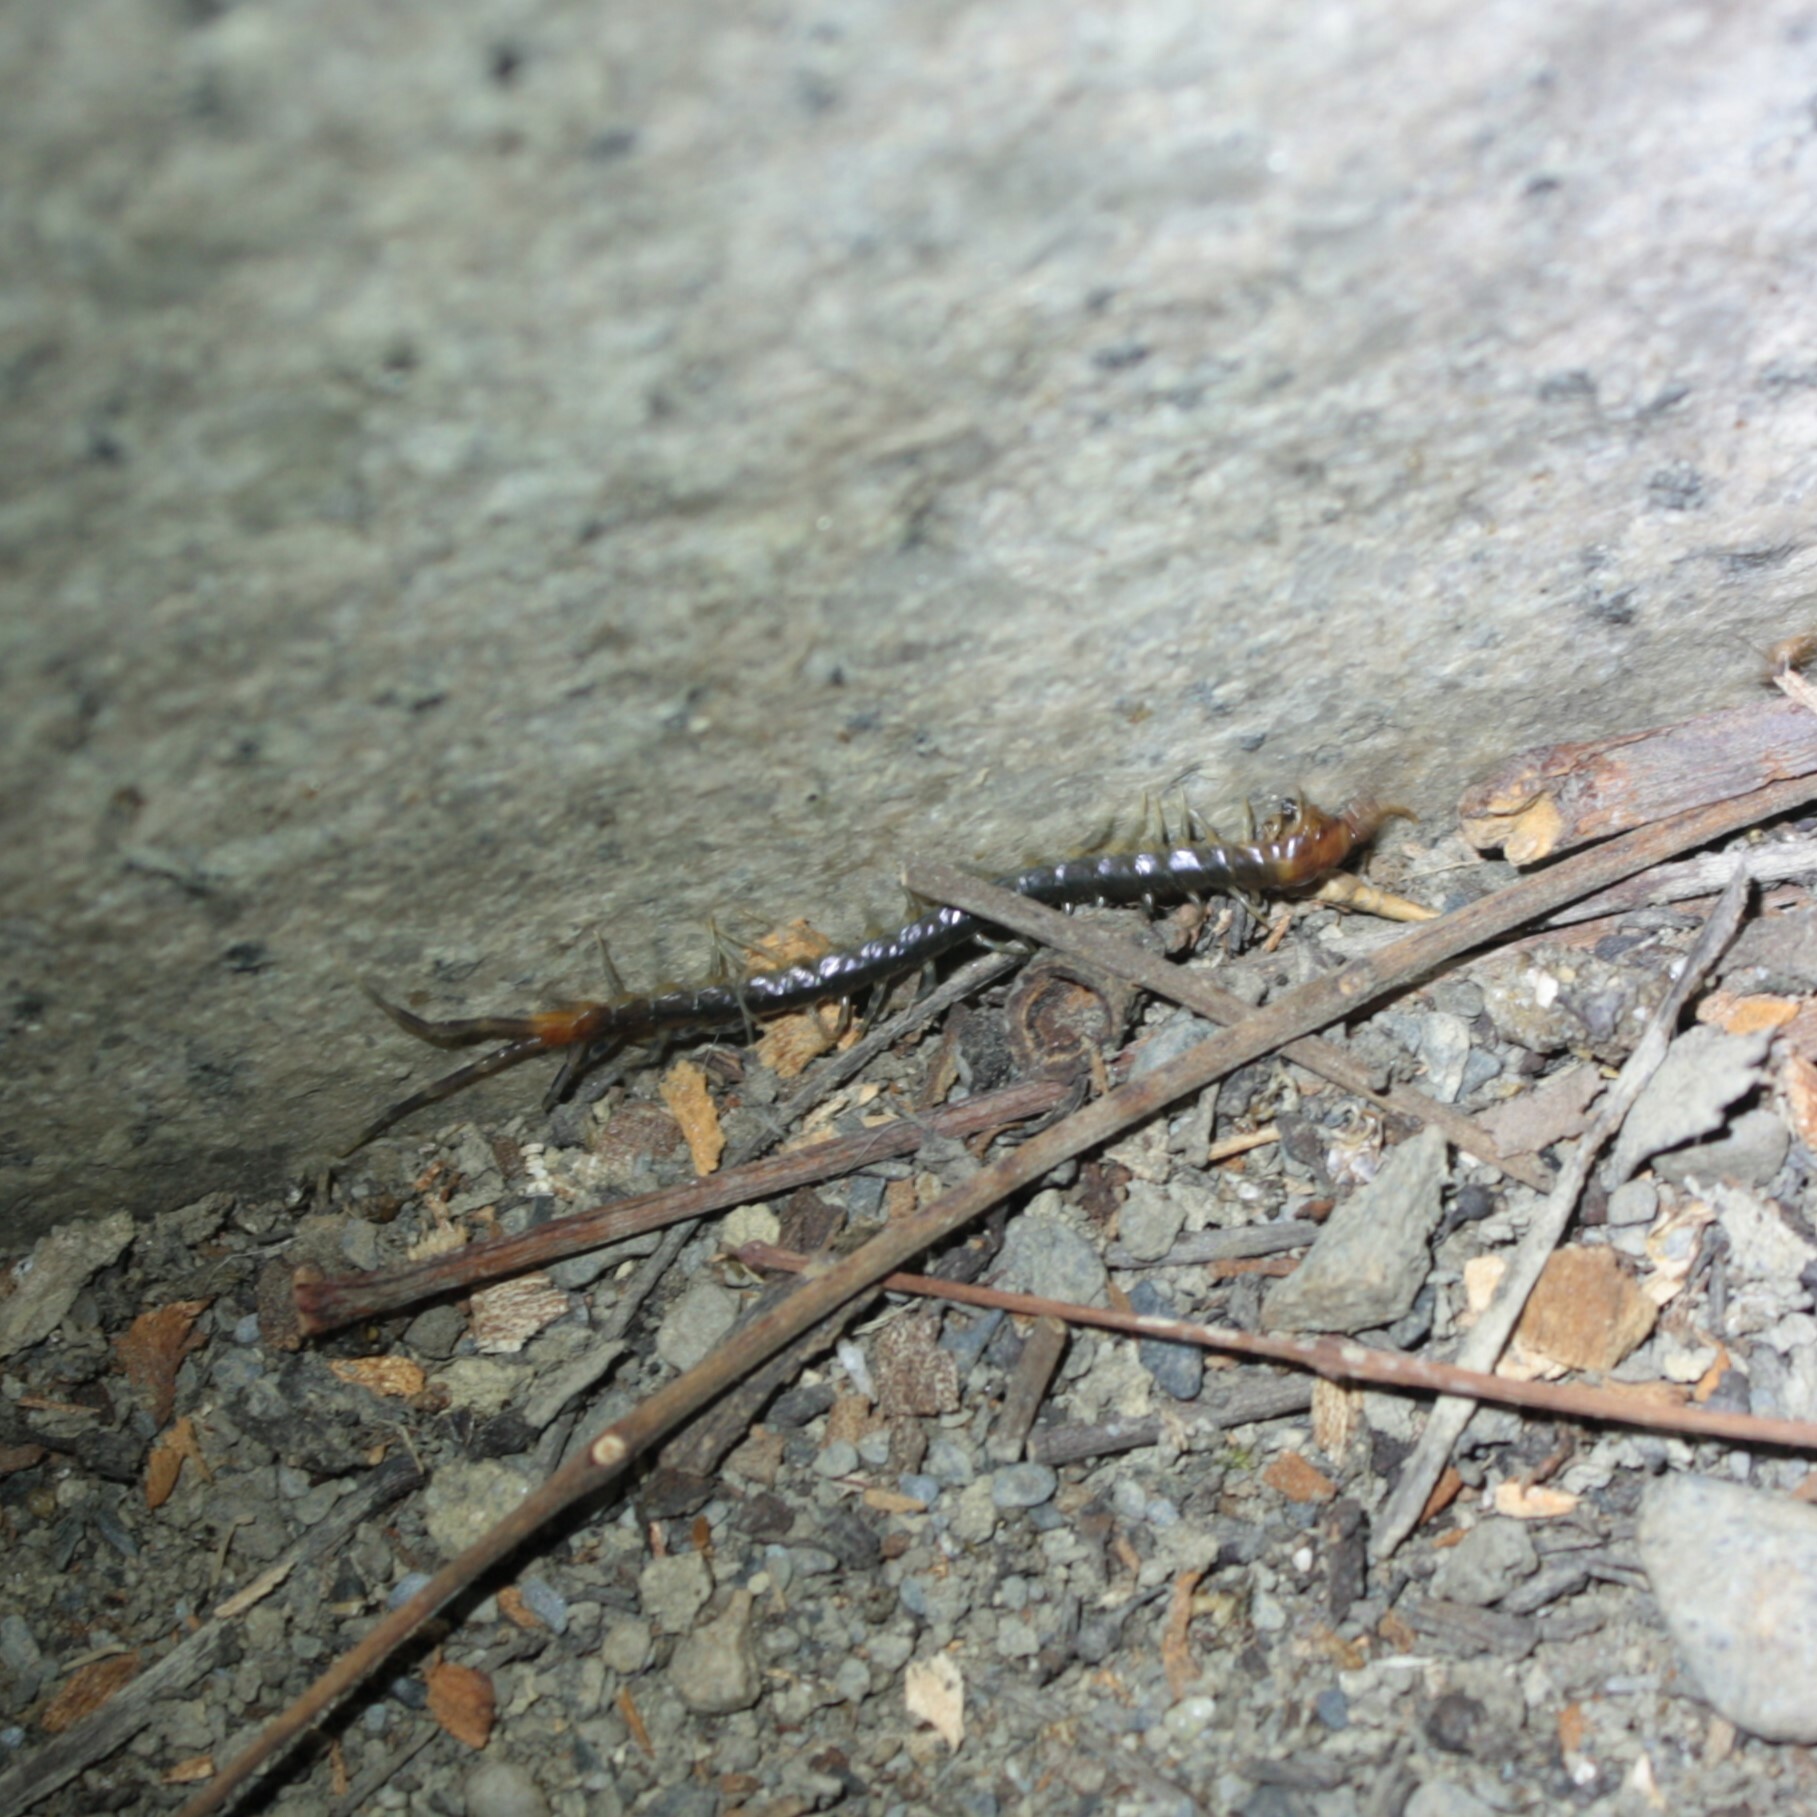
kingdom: Animalia
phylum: Arthropoda
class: Chilopoda
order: Scolopendromorpha
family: Scolopendridae
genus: Rhysida
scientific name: Rhysida longipes
